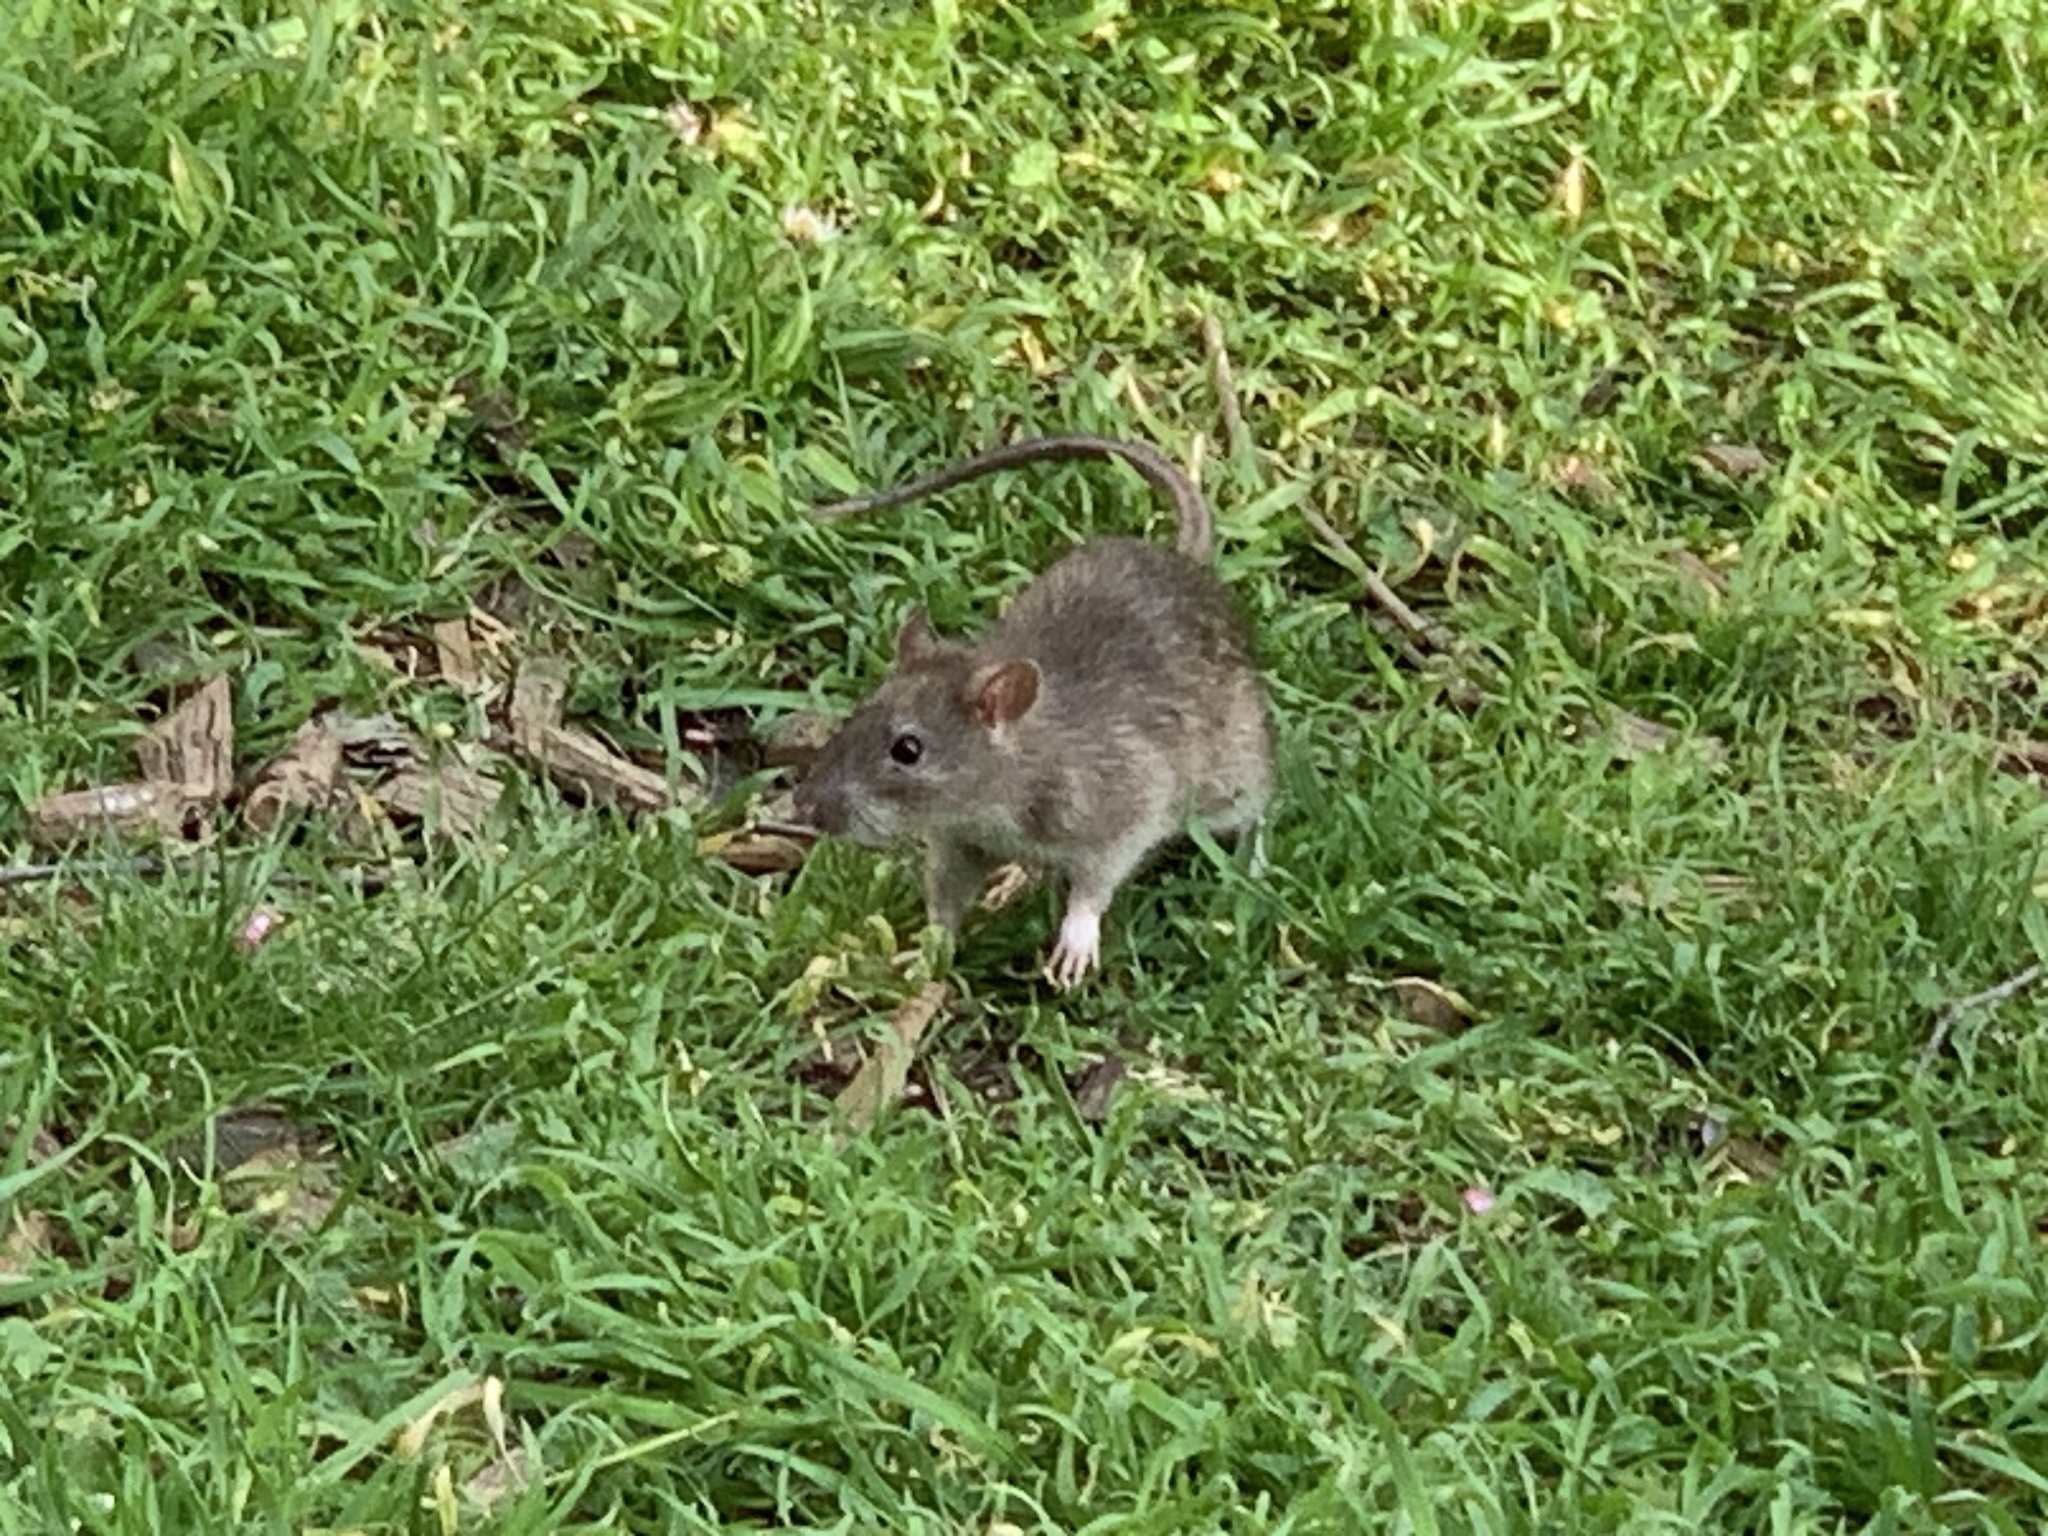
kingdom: Animalia
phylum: Chordata
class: Mammalia
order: Rodentia
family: Muridae
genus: Rattus
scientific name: Rattus norvegicus
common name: Brown rat
